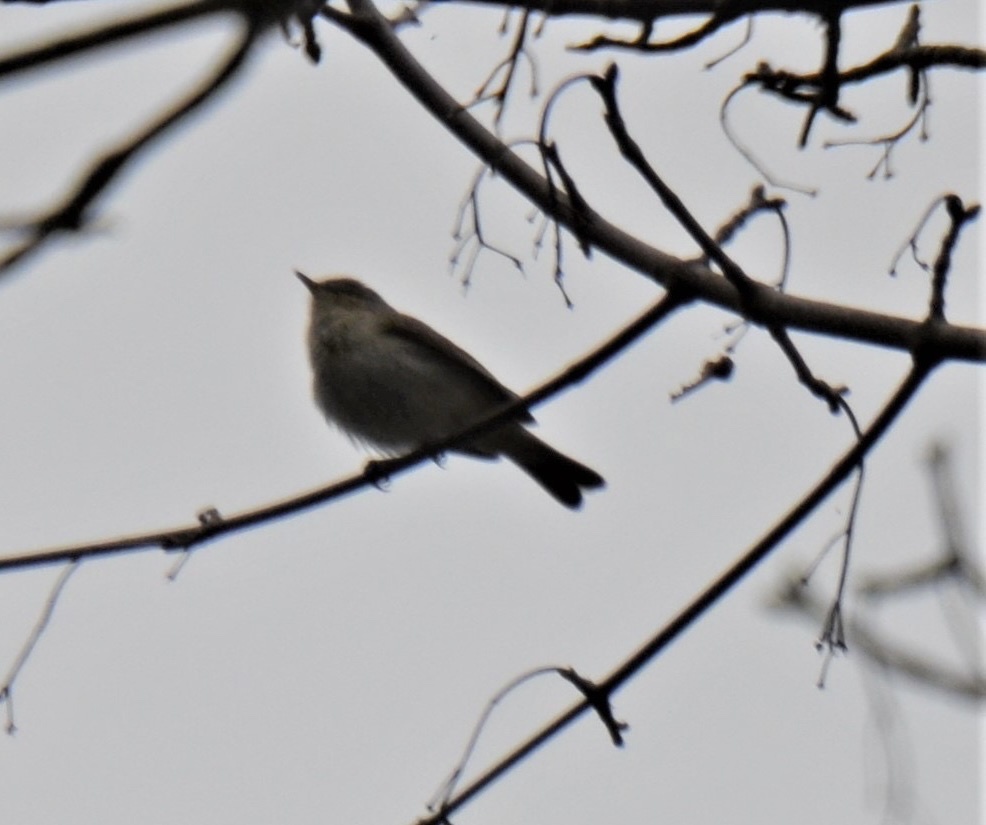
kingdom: Animalia
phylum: Chordata
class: Aves
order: Passeriformes
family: Phylloscopidae
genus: Phylloscopus
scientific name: Phylloscopus collybita
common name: Common chiffchaff
